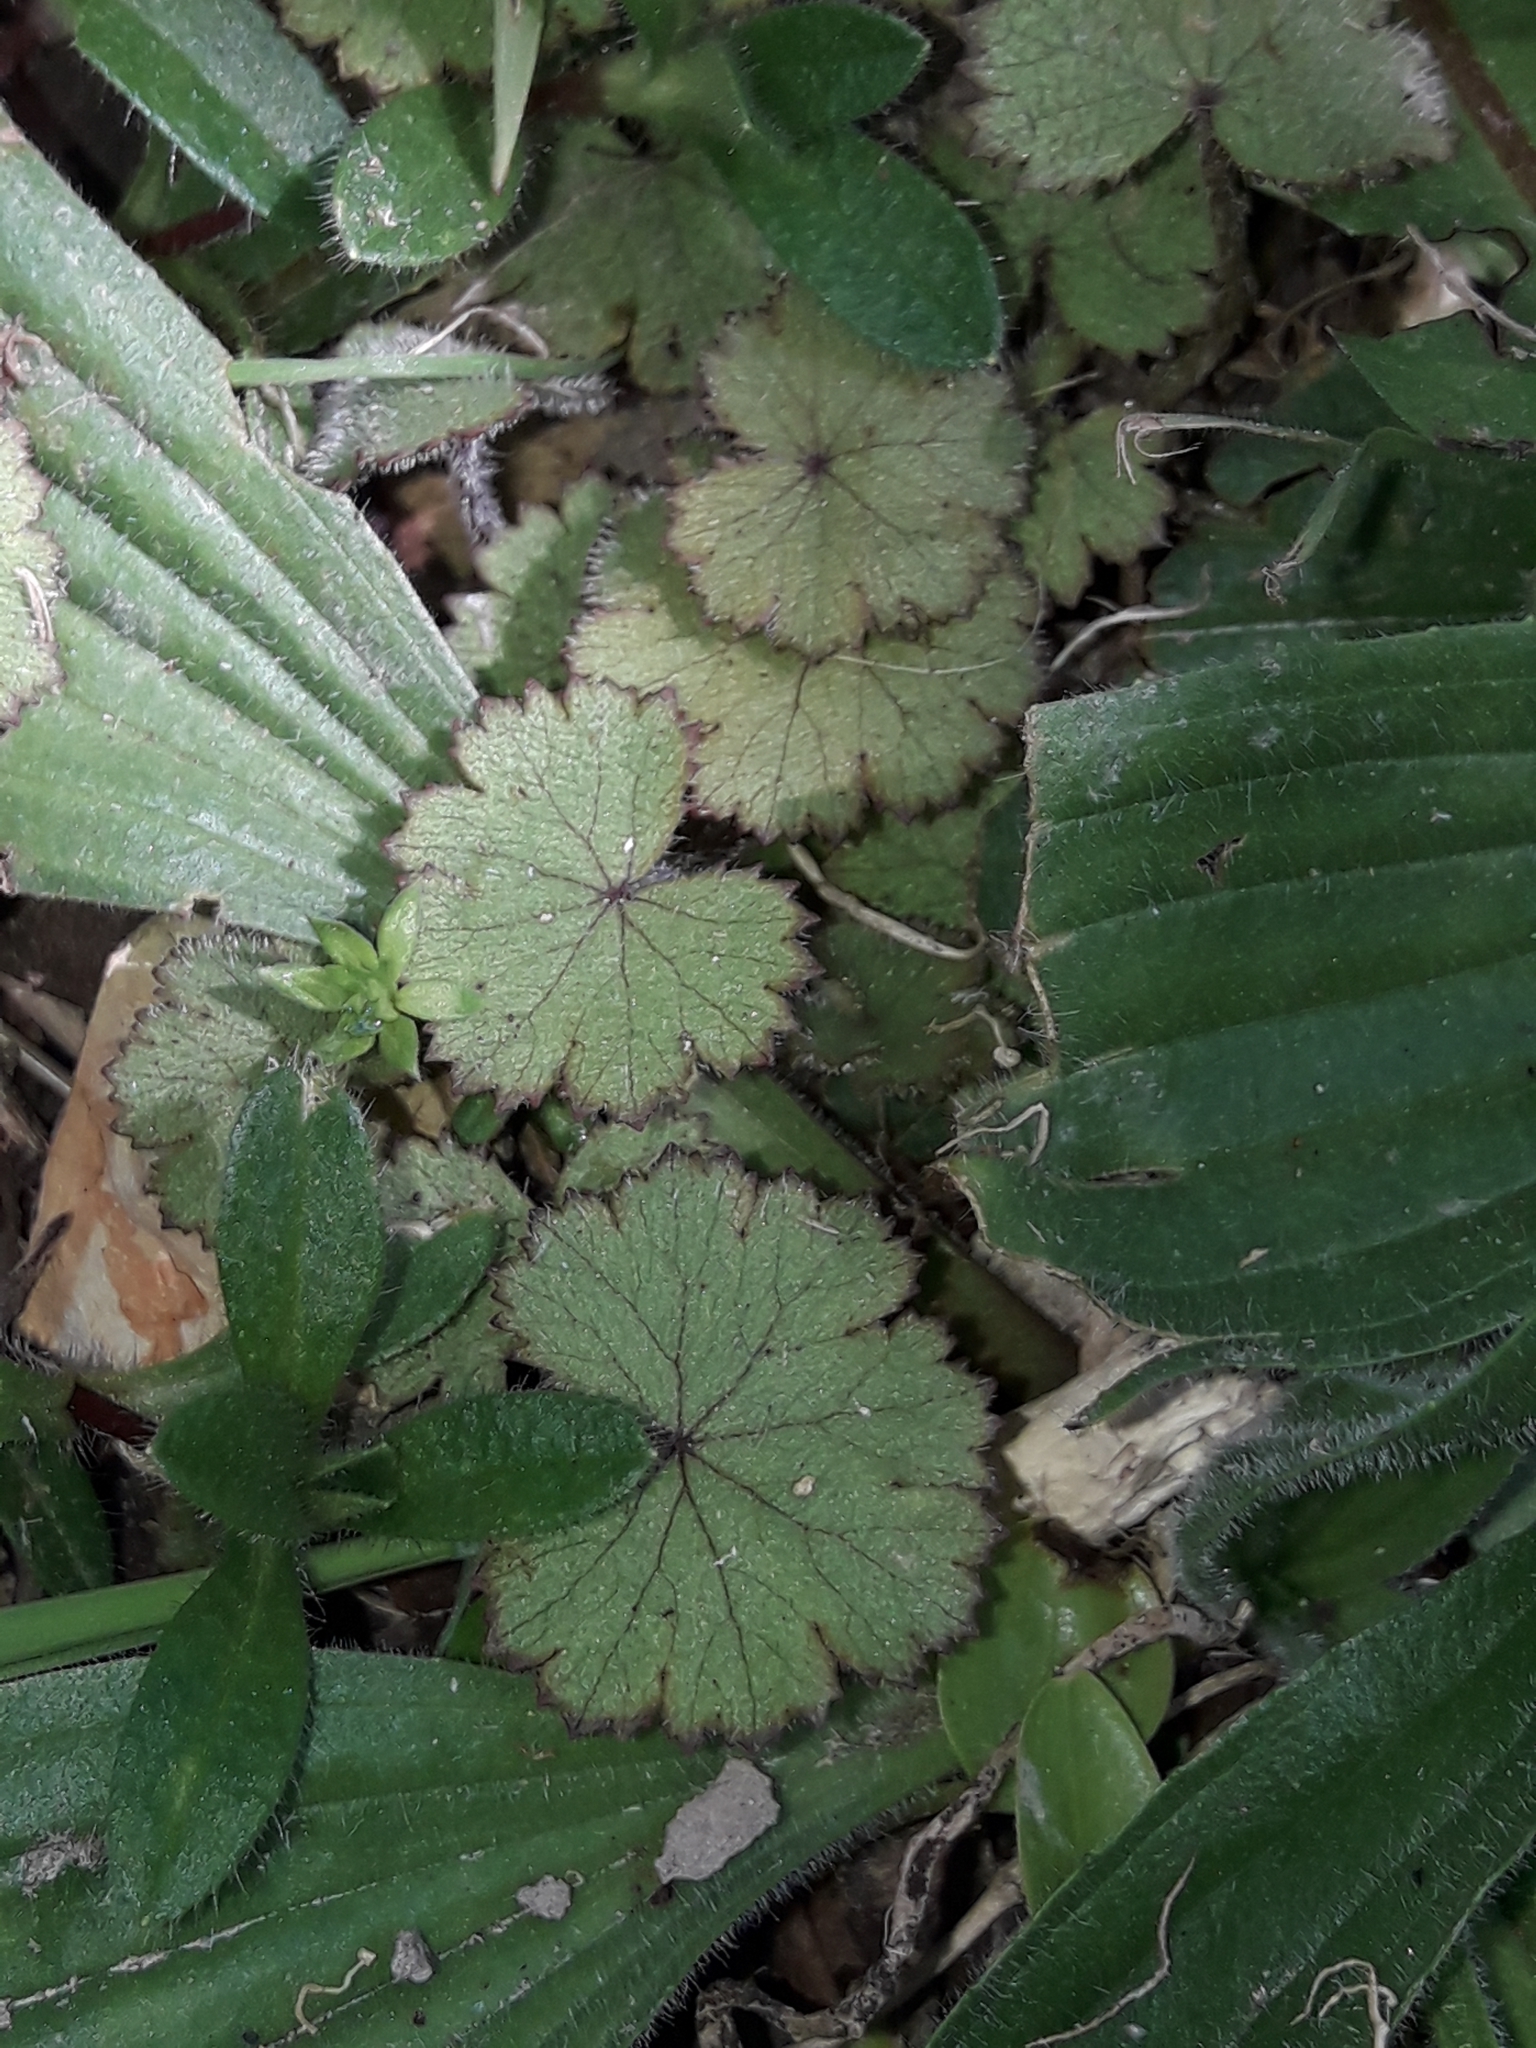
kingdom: Plantae
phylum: Tracheophyta
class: Magnoliopsida
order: Apiales
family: Araliaceae
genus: Hydrocotyle
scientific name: Hydrocotyle moschata
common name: Hairy pennywort
